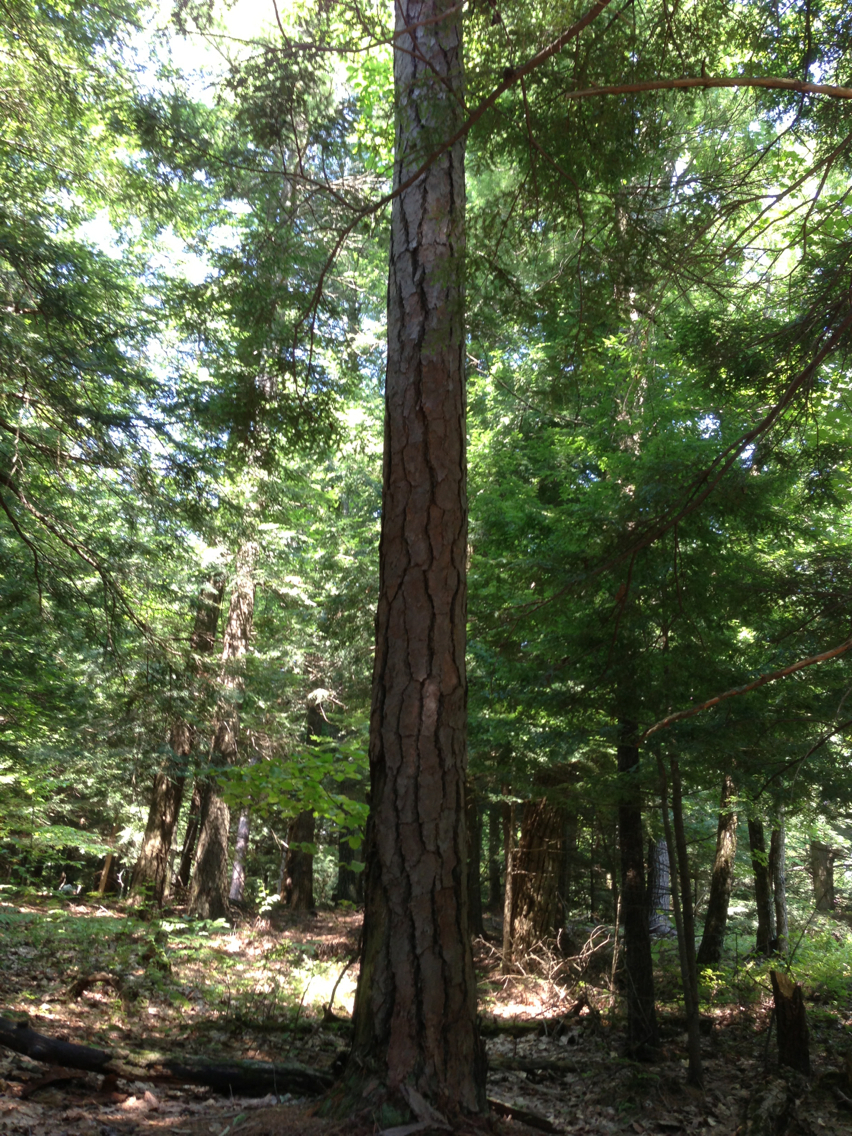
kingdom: Plantae
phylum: Tracheophyta
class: Pinopsida
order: Pinales
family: Pinaceae
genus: Pinus
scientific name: Pinus resinosa
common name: Norway pine
